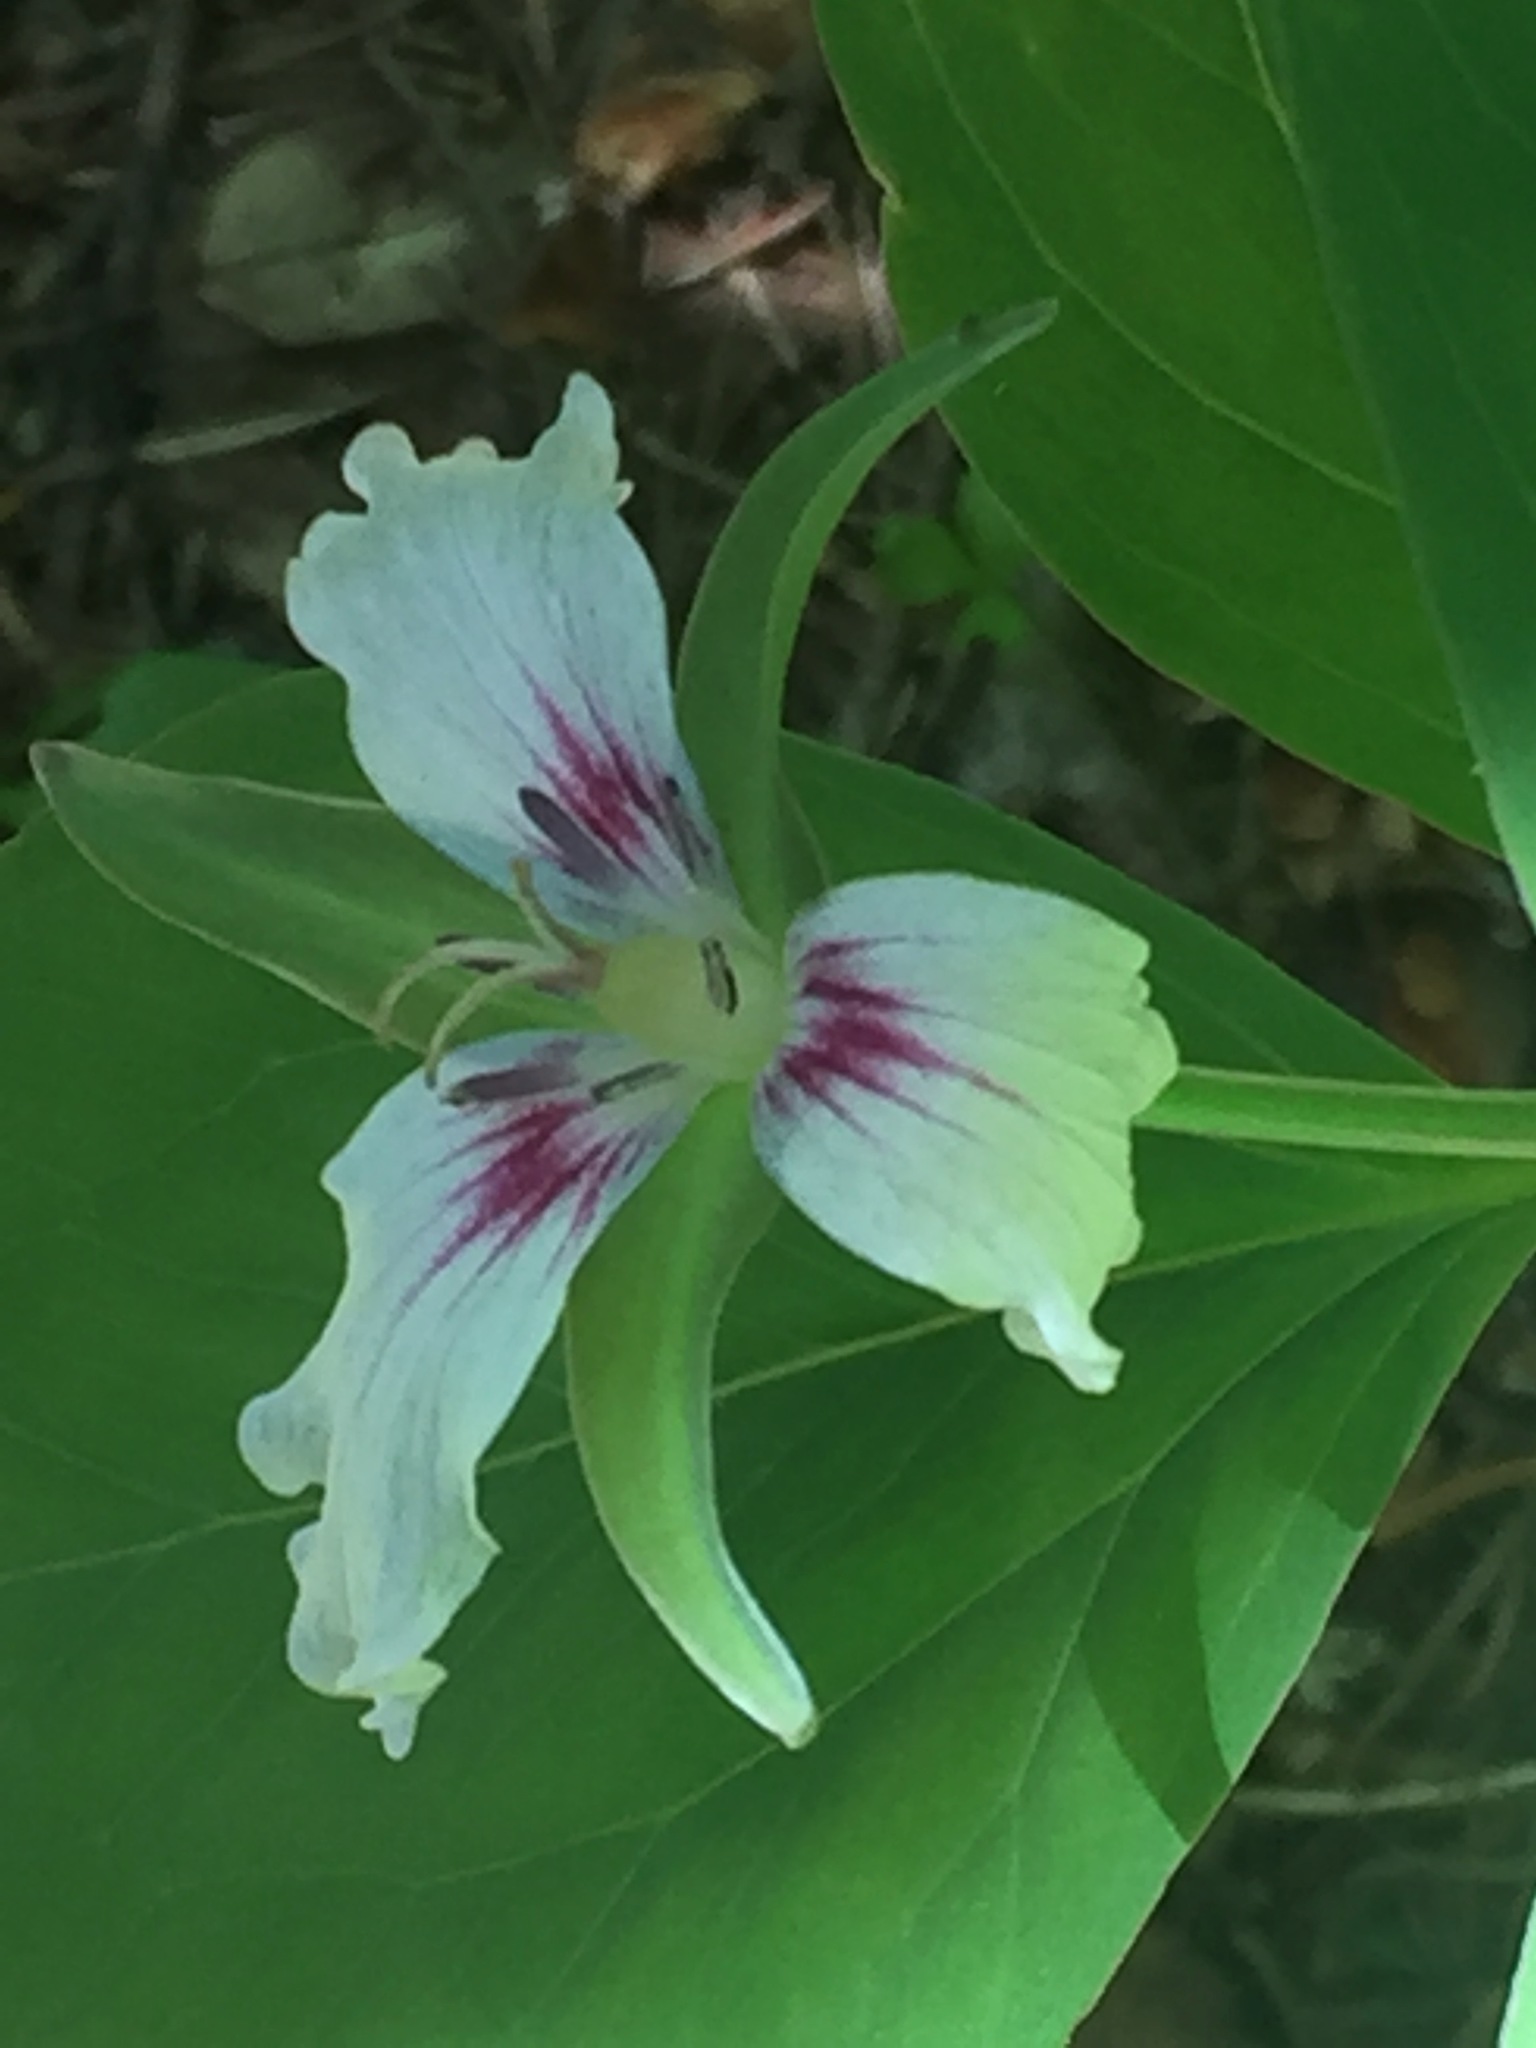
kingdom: Plantae
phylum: Tracheophyta
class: Liliopsida
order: Liliales
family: Melanthiaceae
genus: Trillium
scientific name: Trillium undulatum
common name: Paint trillium
